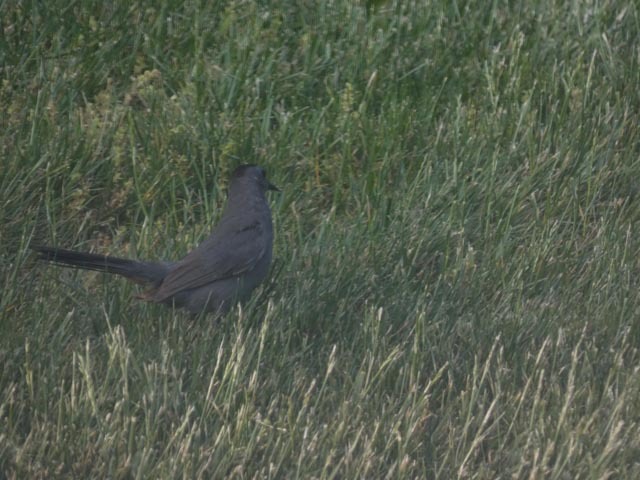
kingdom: Animalia
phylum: Chordata
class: Aves
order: Passeriformes
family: Mimidae
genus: Dumetella
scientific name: Dumetella carolinensis
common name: Gray catbird
